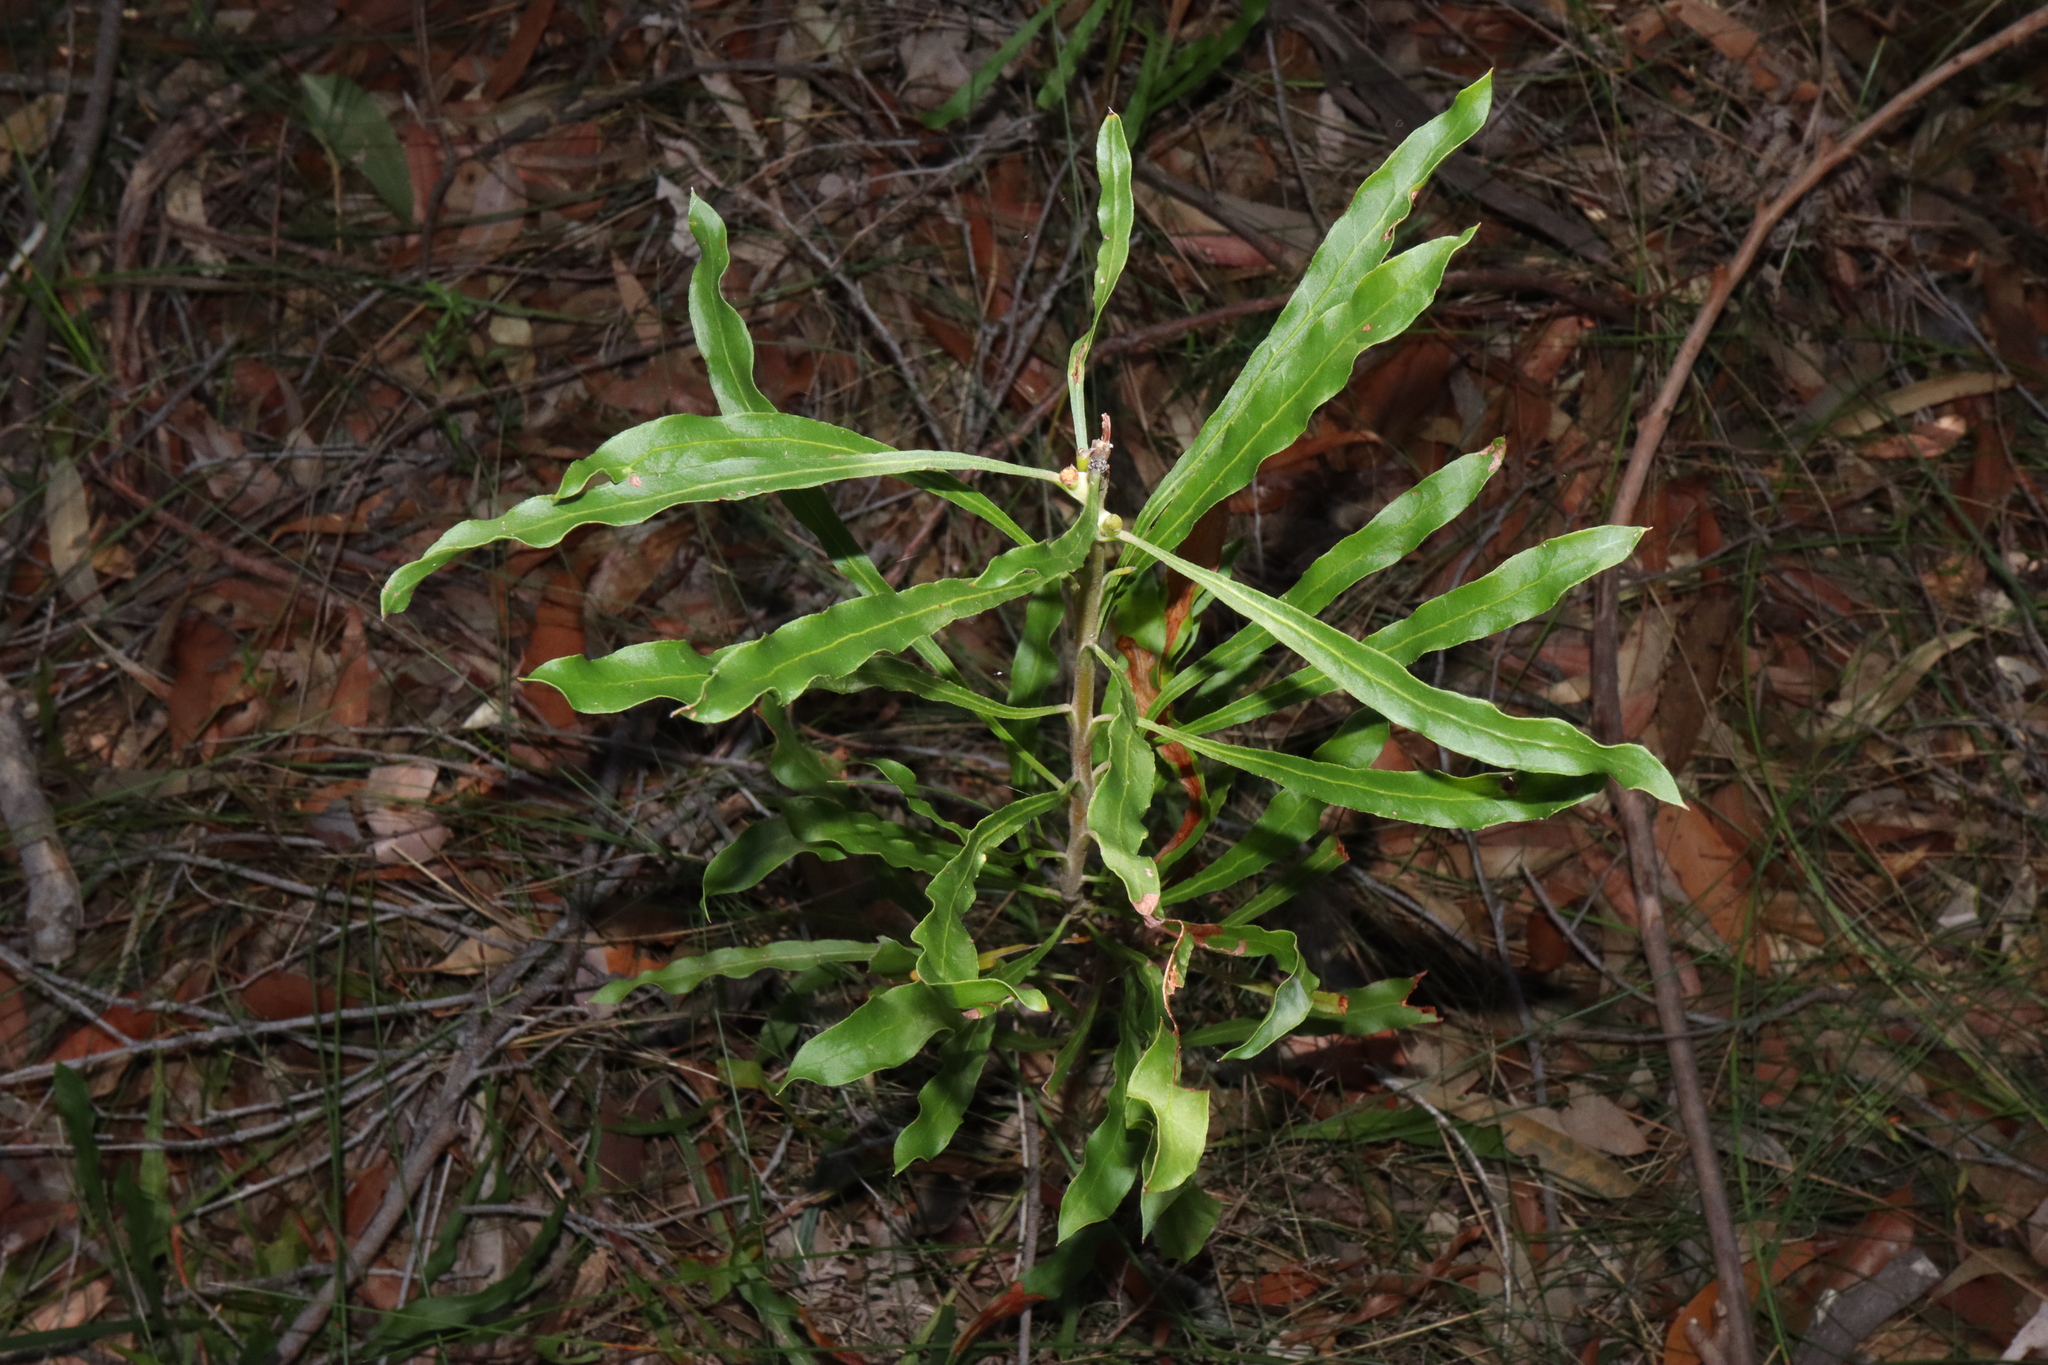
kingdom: Plantae
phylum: Tracheophyta
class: Magnoliopsida
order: Proteales
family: Proteaceae
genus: Conospermum
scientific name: Conospermum longifolium
